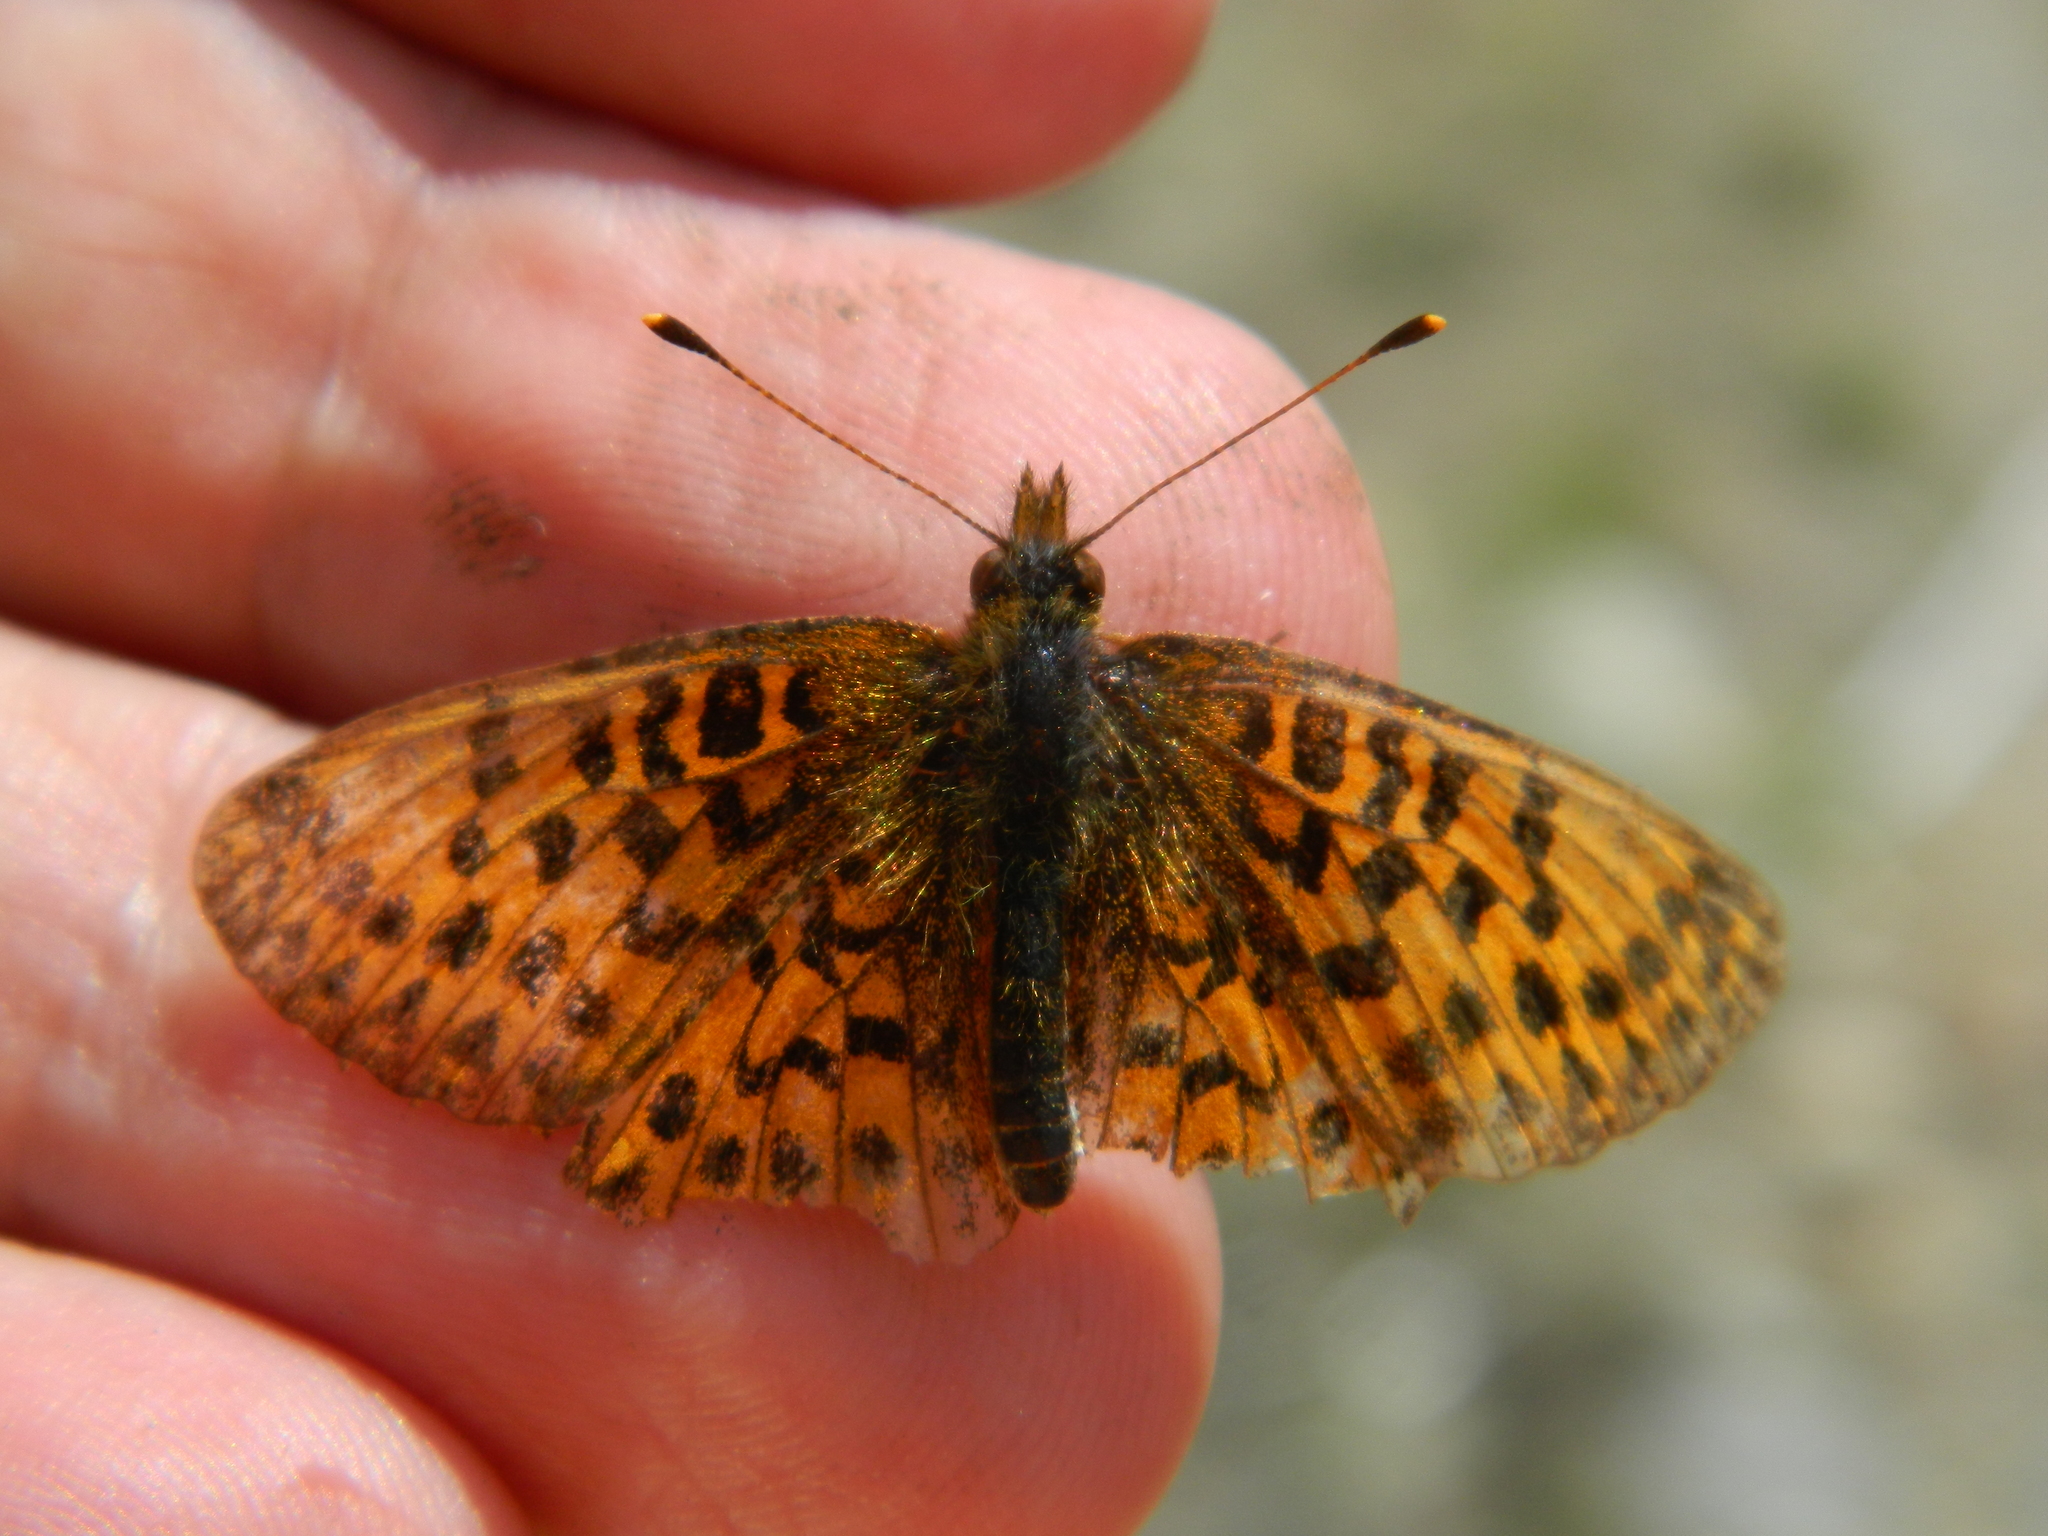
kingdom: Animalia
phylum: Arthropoda
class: Insecta
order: Lepidoptera
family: Nymphalidae
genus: Clossiana
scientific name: Clossiana chariclea
